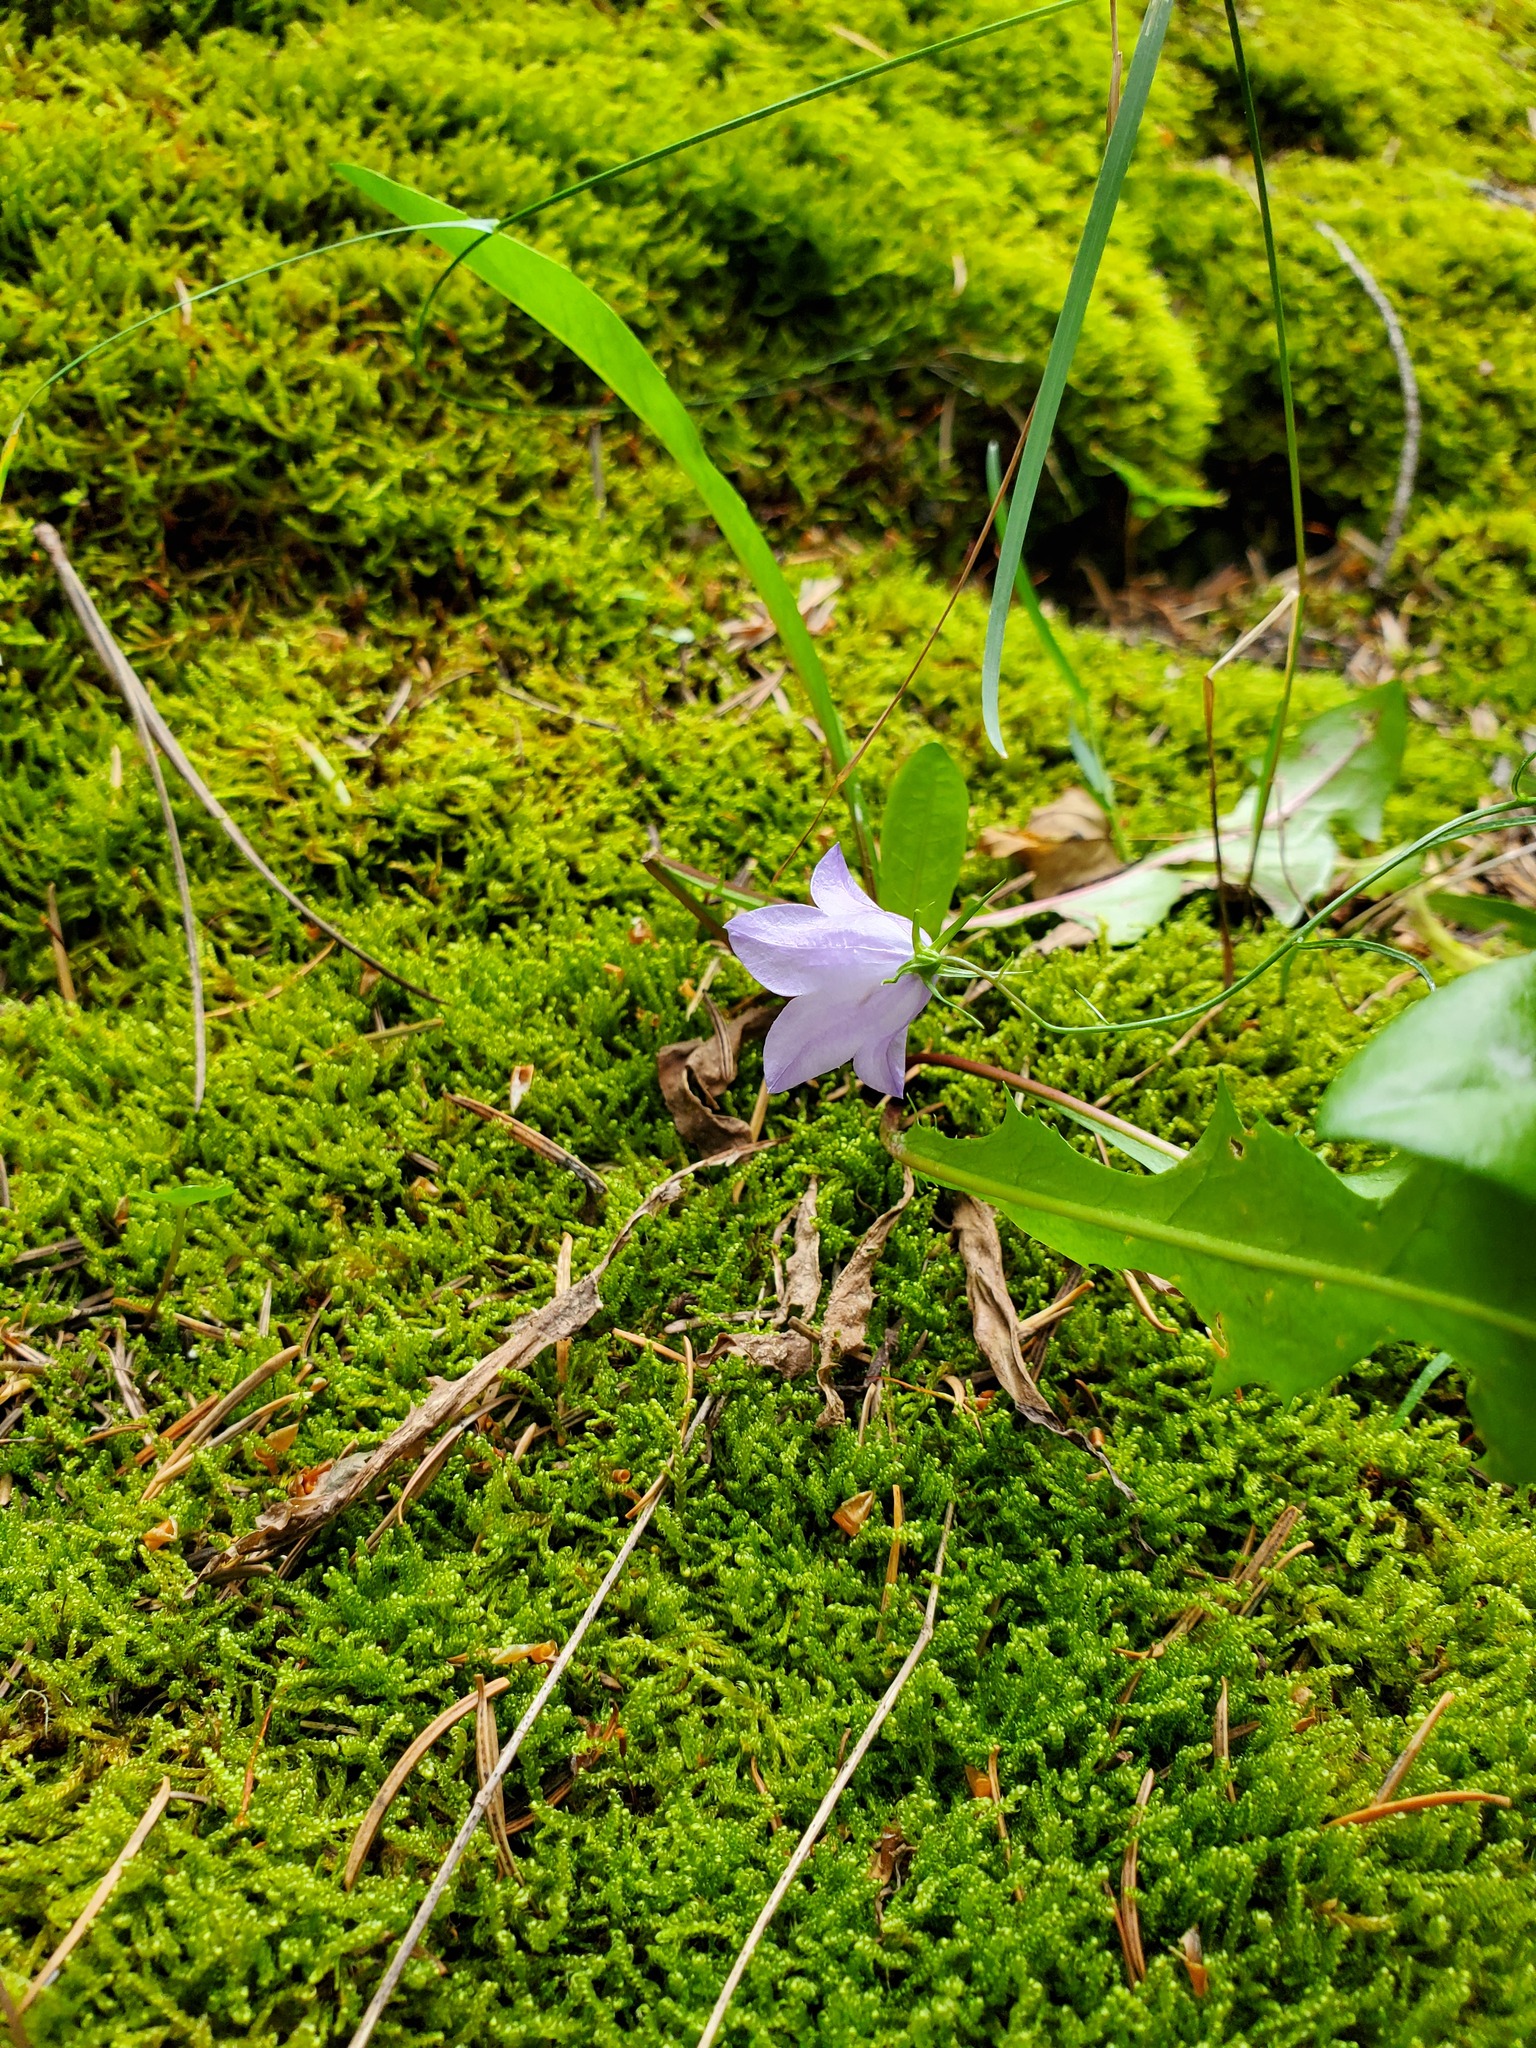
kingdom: Plantae
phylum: Tracheophyta
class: Magnoliopsida
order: Asterales
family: Campanulaceae
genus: Campanula
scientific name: Campanula petiolata
